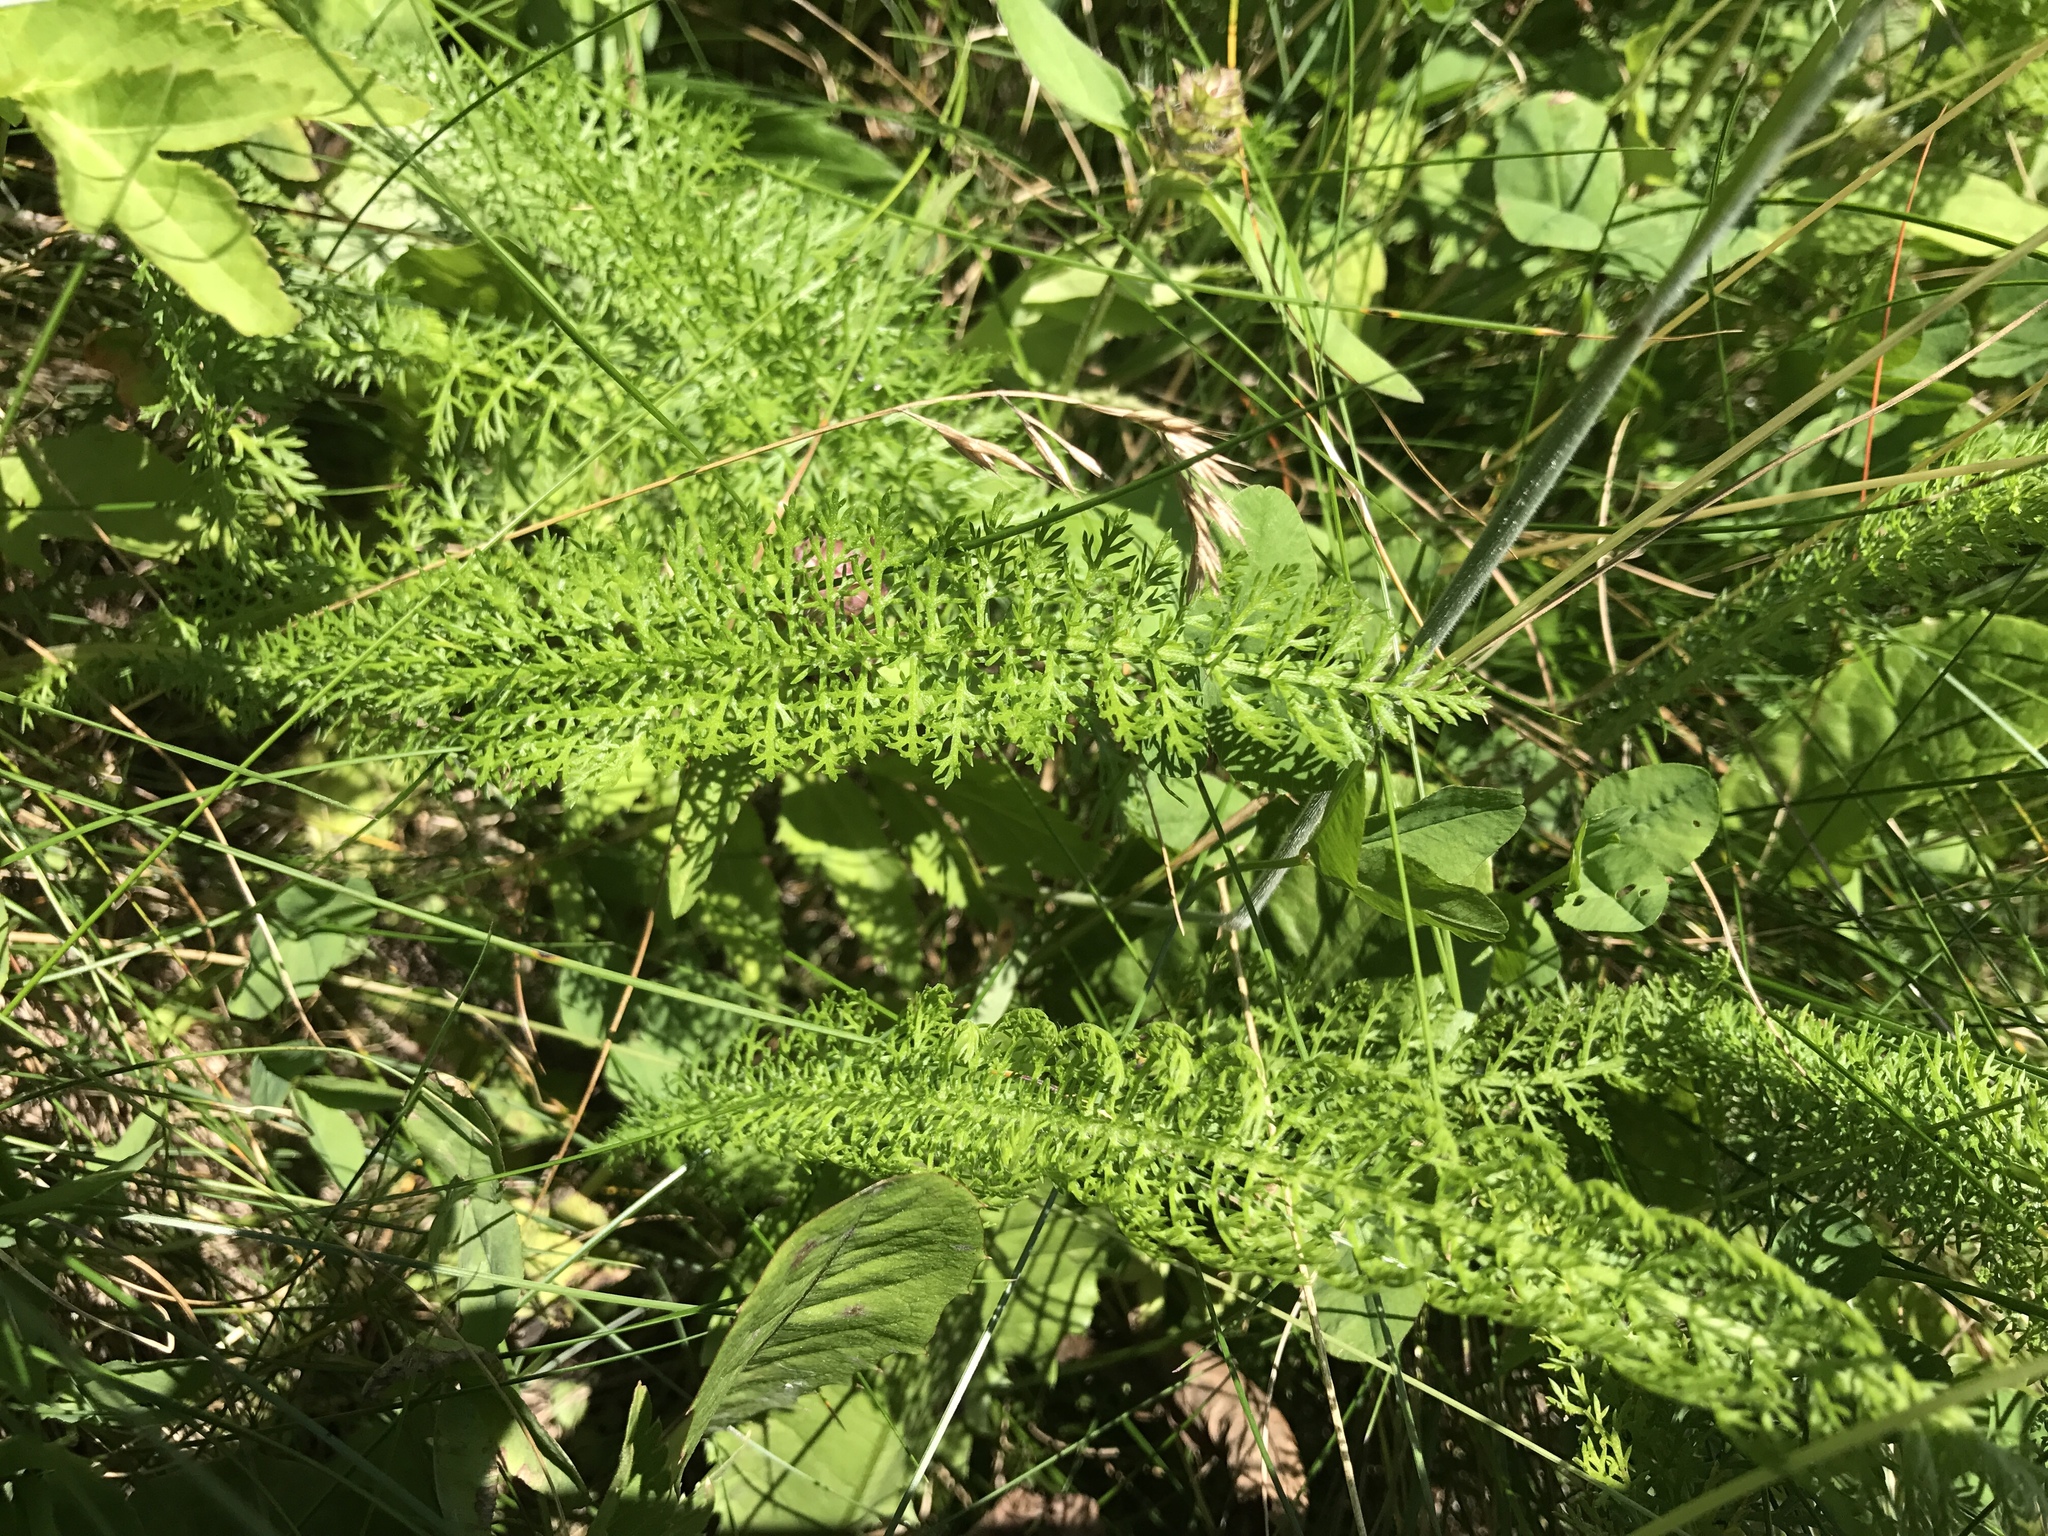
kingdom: Plantae
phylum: Tracheophyta
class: Magnoliopsida
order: Asterales
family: Asteraceae
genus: Achillea
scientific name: Achillea millefolium
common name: Yarrow
